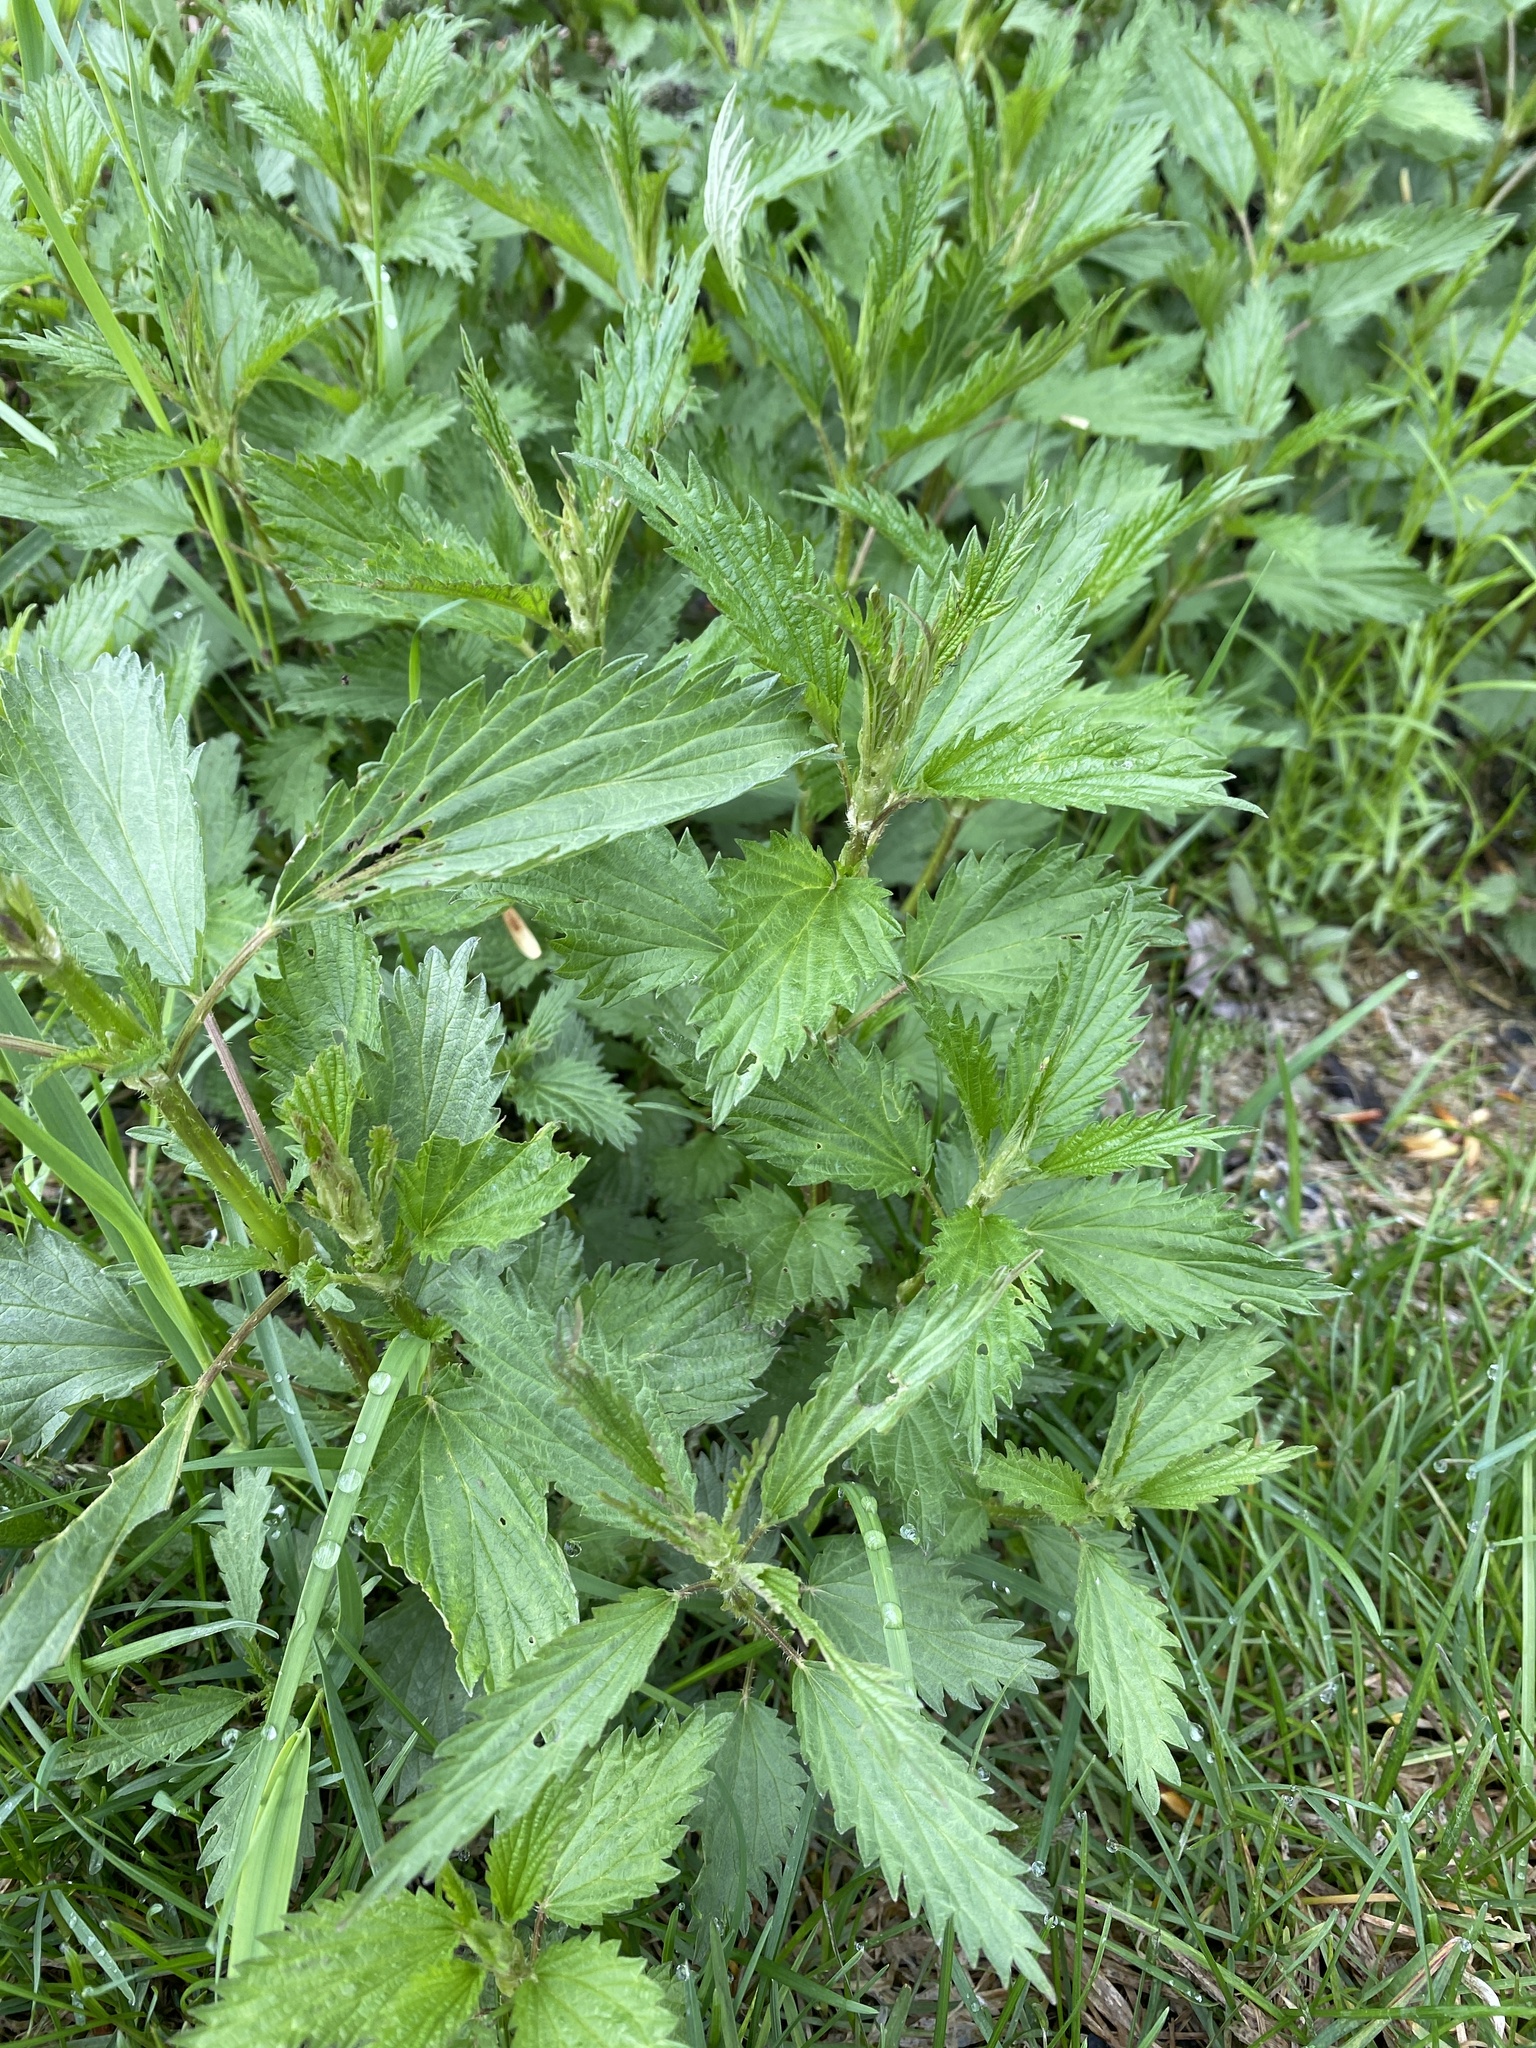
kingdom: Plantae
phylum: Tracheophyta
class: Magnoliopsida
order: Rosales
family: Urticaceae
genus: Urtica
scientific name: Urtica gracilis
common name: Slender stinging nettle
